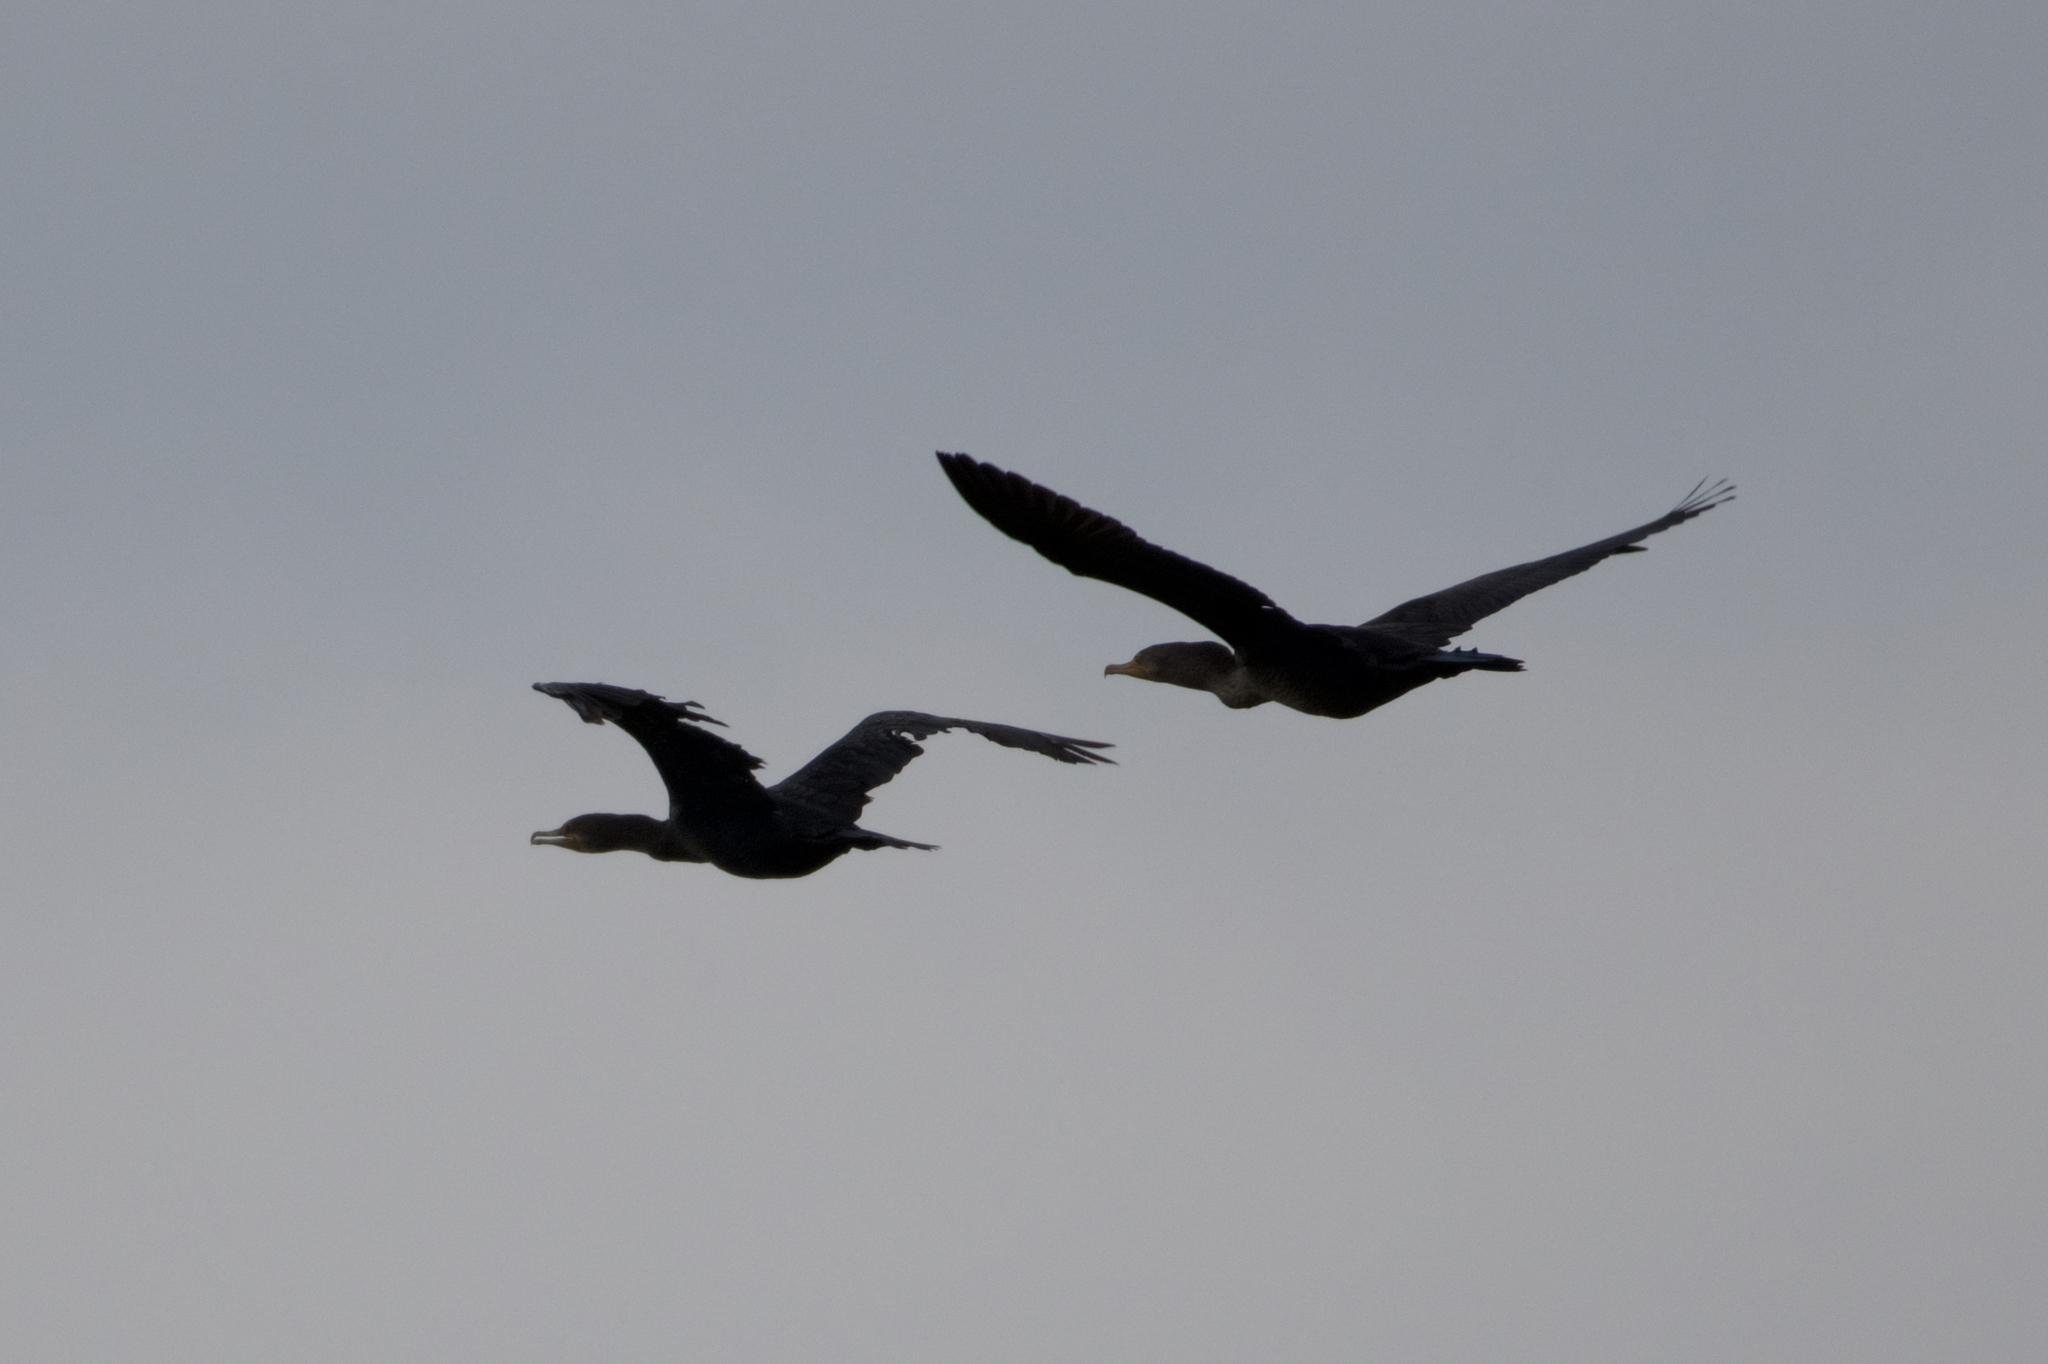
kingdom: Animalia
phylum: Chordata
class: Aves
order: Suliformes
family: Phalacrocoracidae
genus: Phalacrocorax
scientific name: Phalacrocorax auritus
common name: Double-crested cormorant
